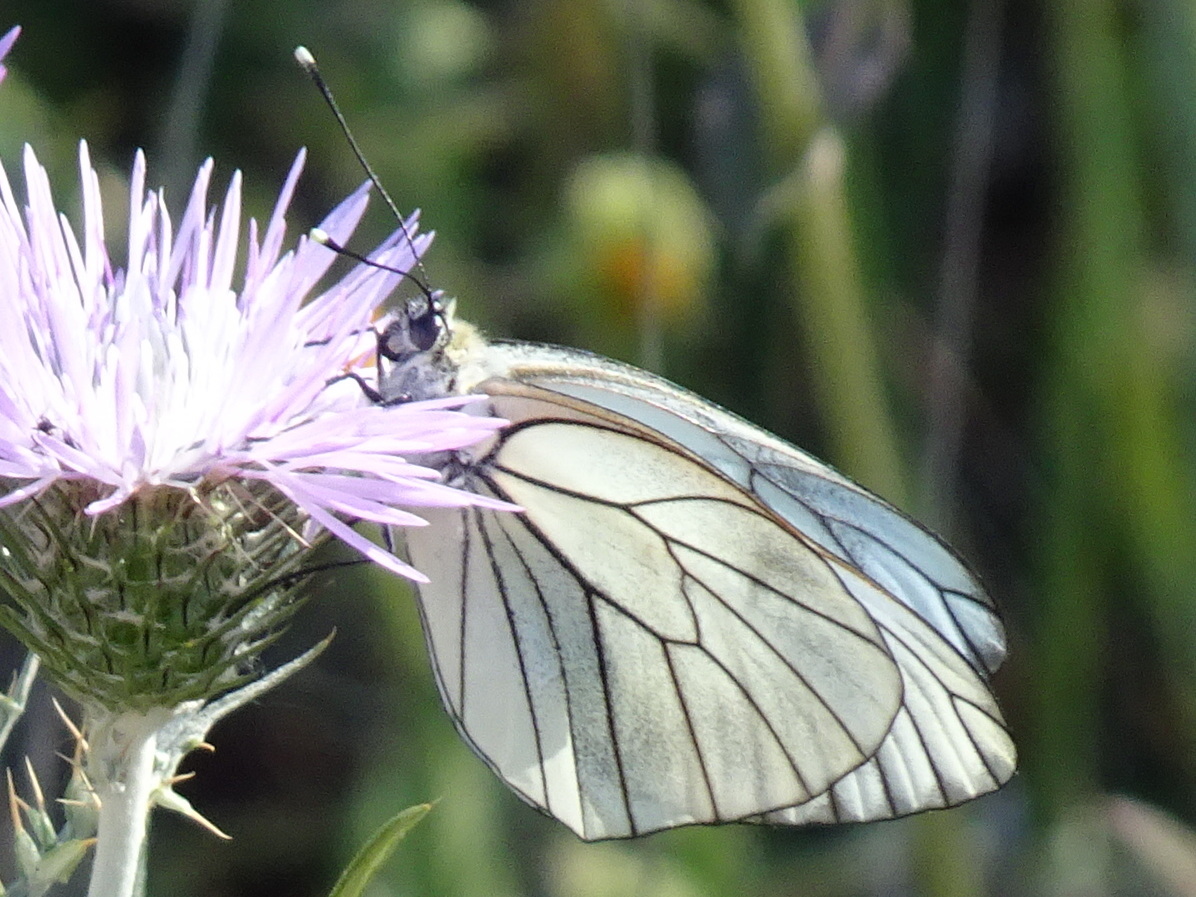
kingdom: Animalia
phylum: Arthropoda
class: Insecta
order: Lepidoptera
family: Pieridae
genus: Aporia
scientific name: Aporia crataegi
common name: Black-veined white
